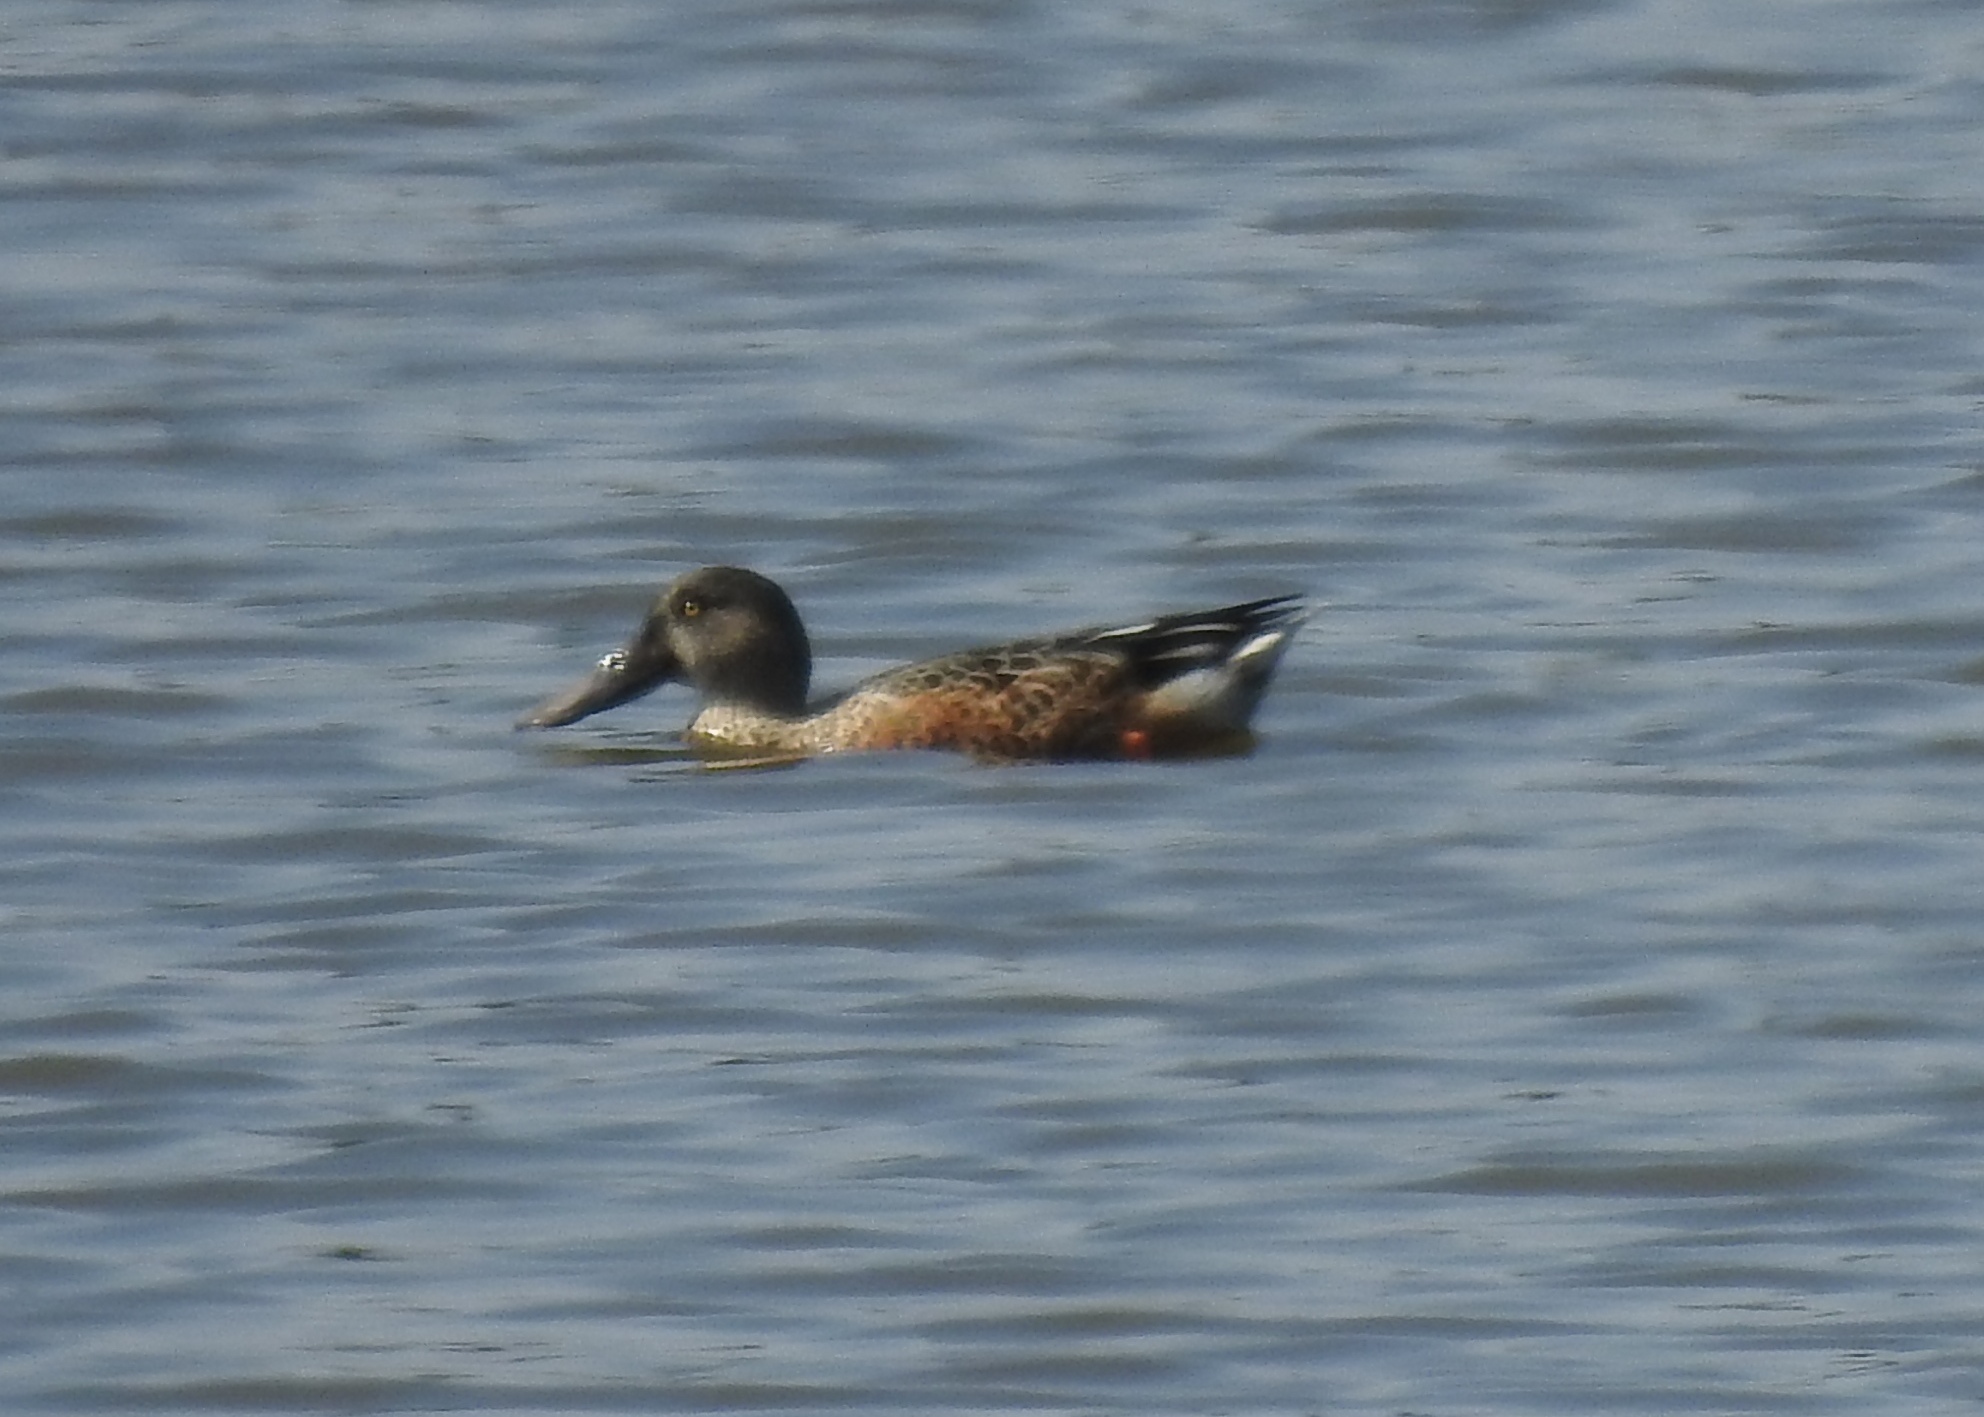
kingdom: Animalia
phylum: Chordata
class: Aves
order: Anseriformes
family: Anatidae
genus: Spatula
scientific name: Spatula clypeata
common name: Northern shoveler
